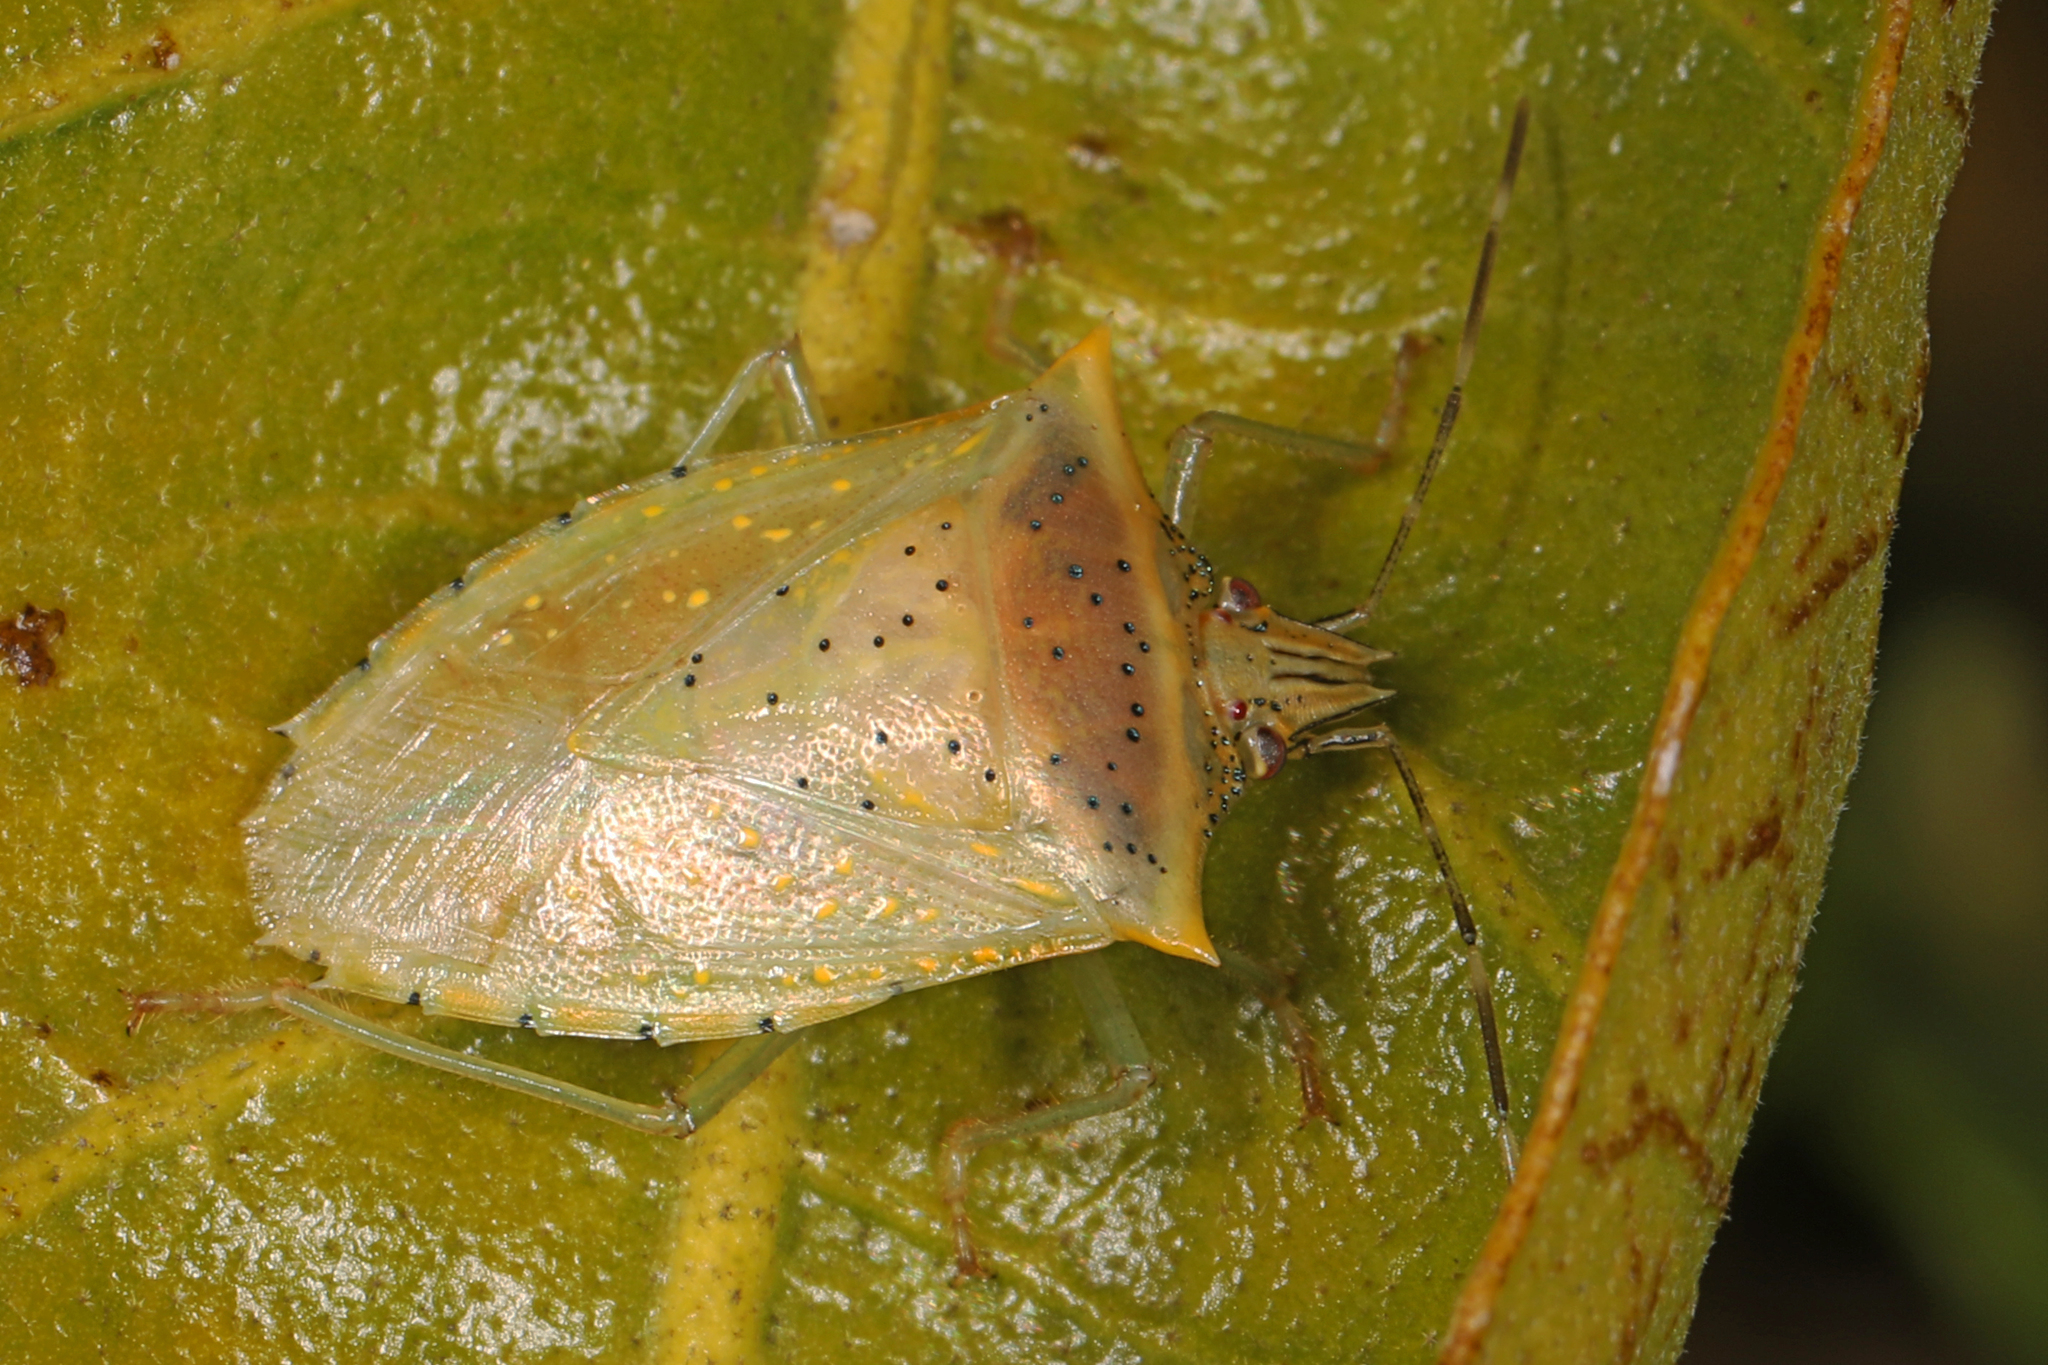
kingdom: Animalia
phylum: Arthropoda
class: Insecta
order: Hemiptera
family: Pentatomidae
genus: Arvelius
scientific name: Arvelius albopunctatus
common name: Tomato stink bug
